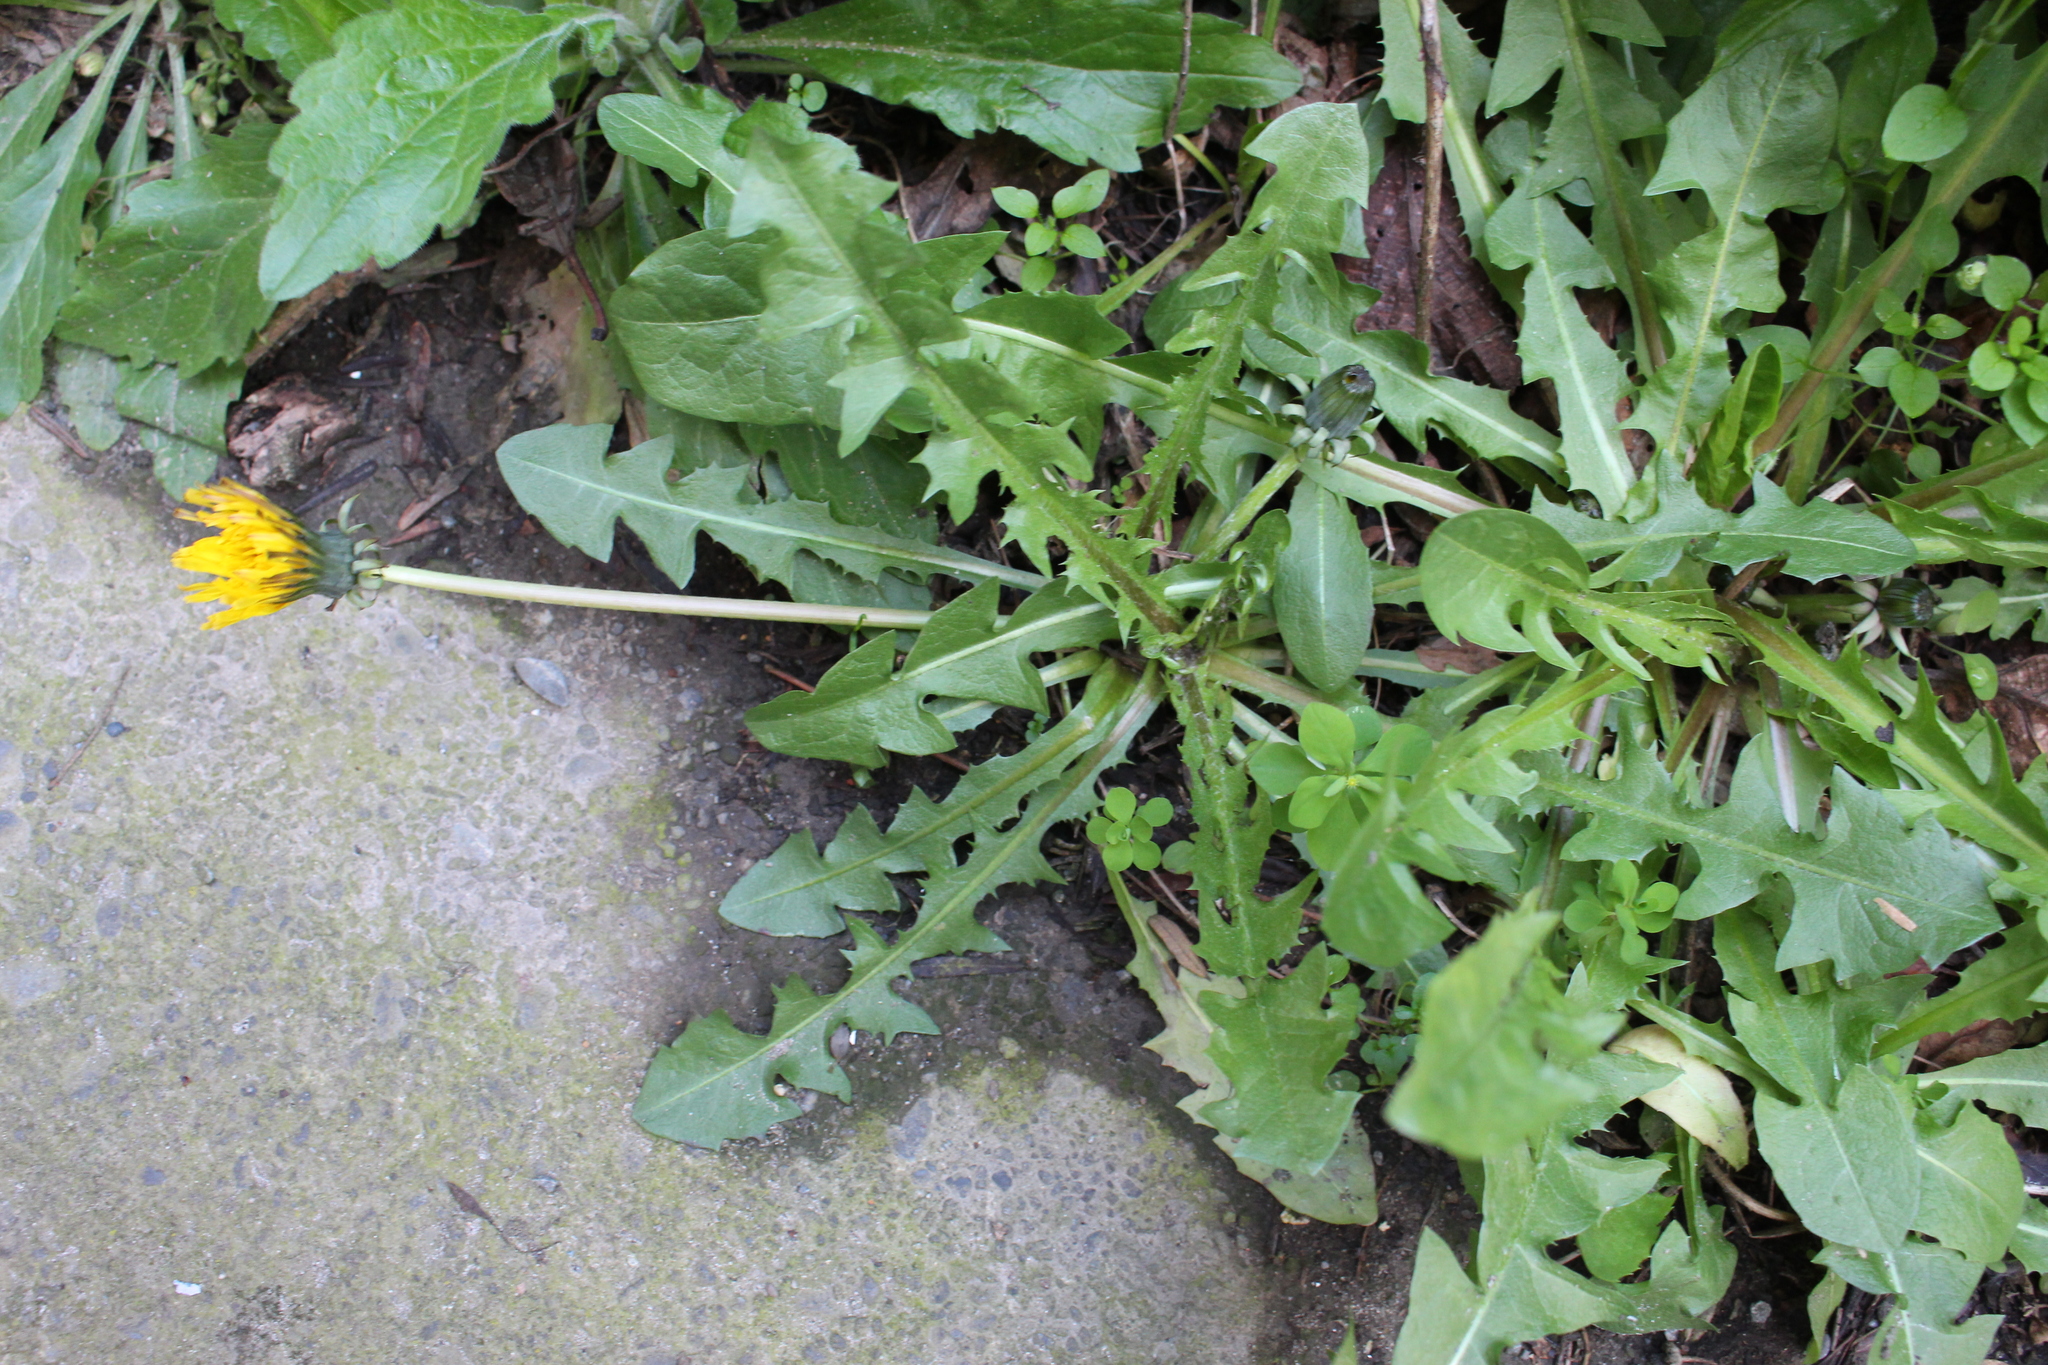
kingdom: Plantae
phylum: Tracheophyta
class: Magnoliopsida
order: Asterales
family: Asteraceae
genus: Taraxacum
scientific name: Taraxacum officinale
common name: Common dandelion
